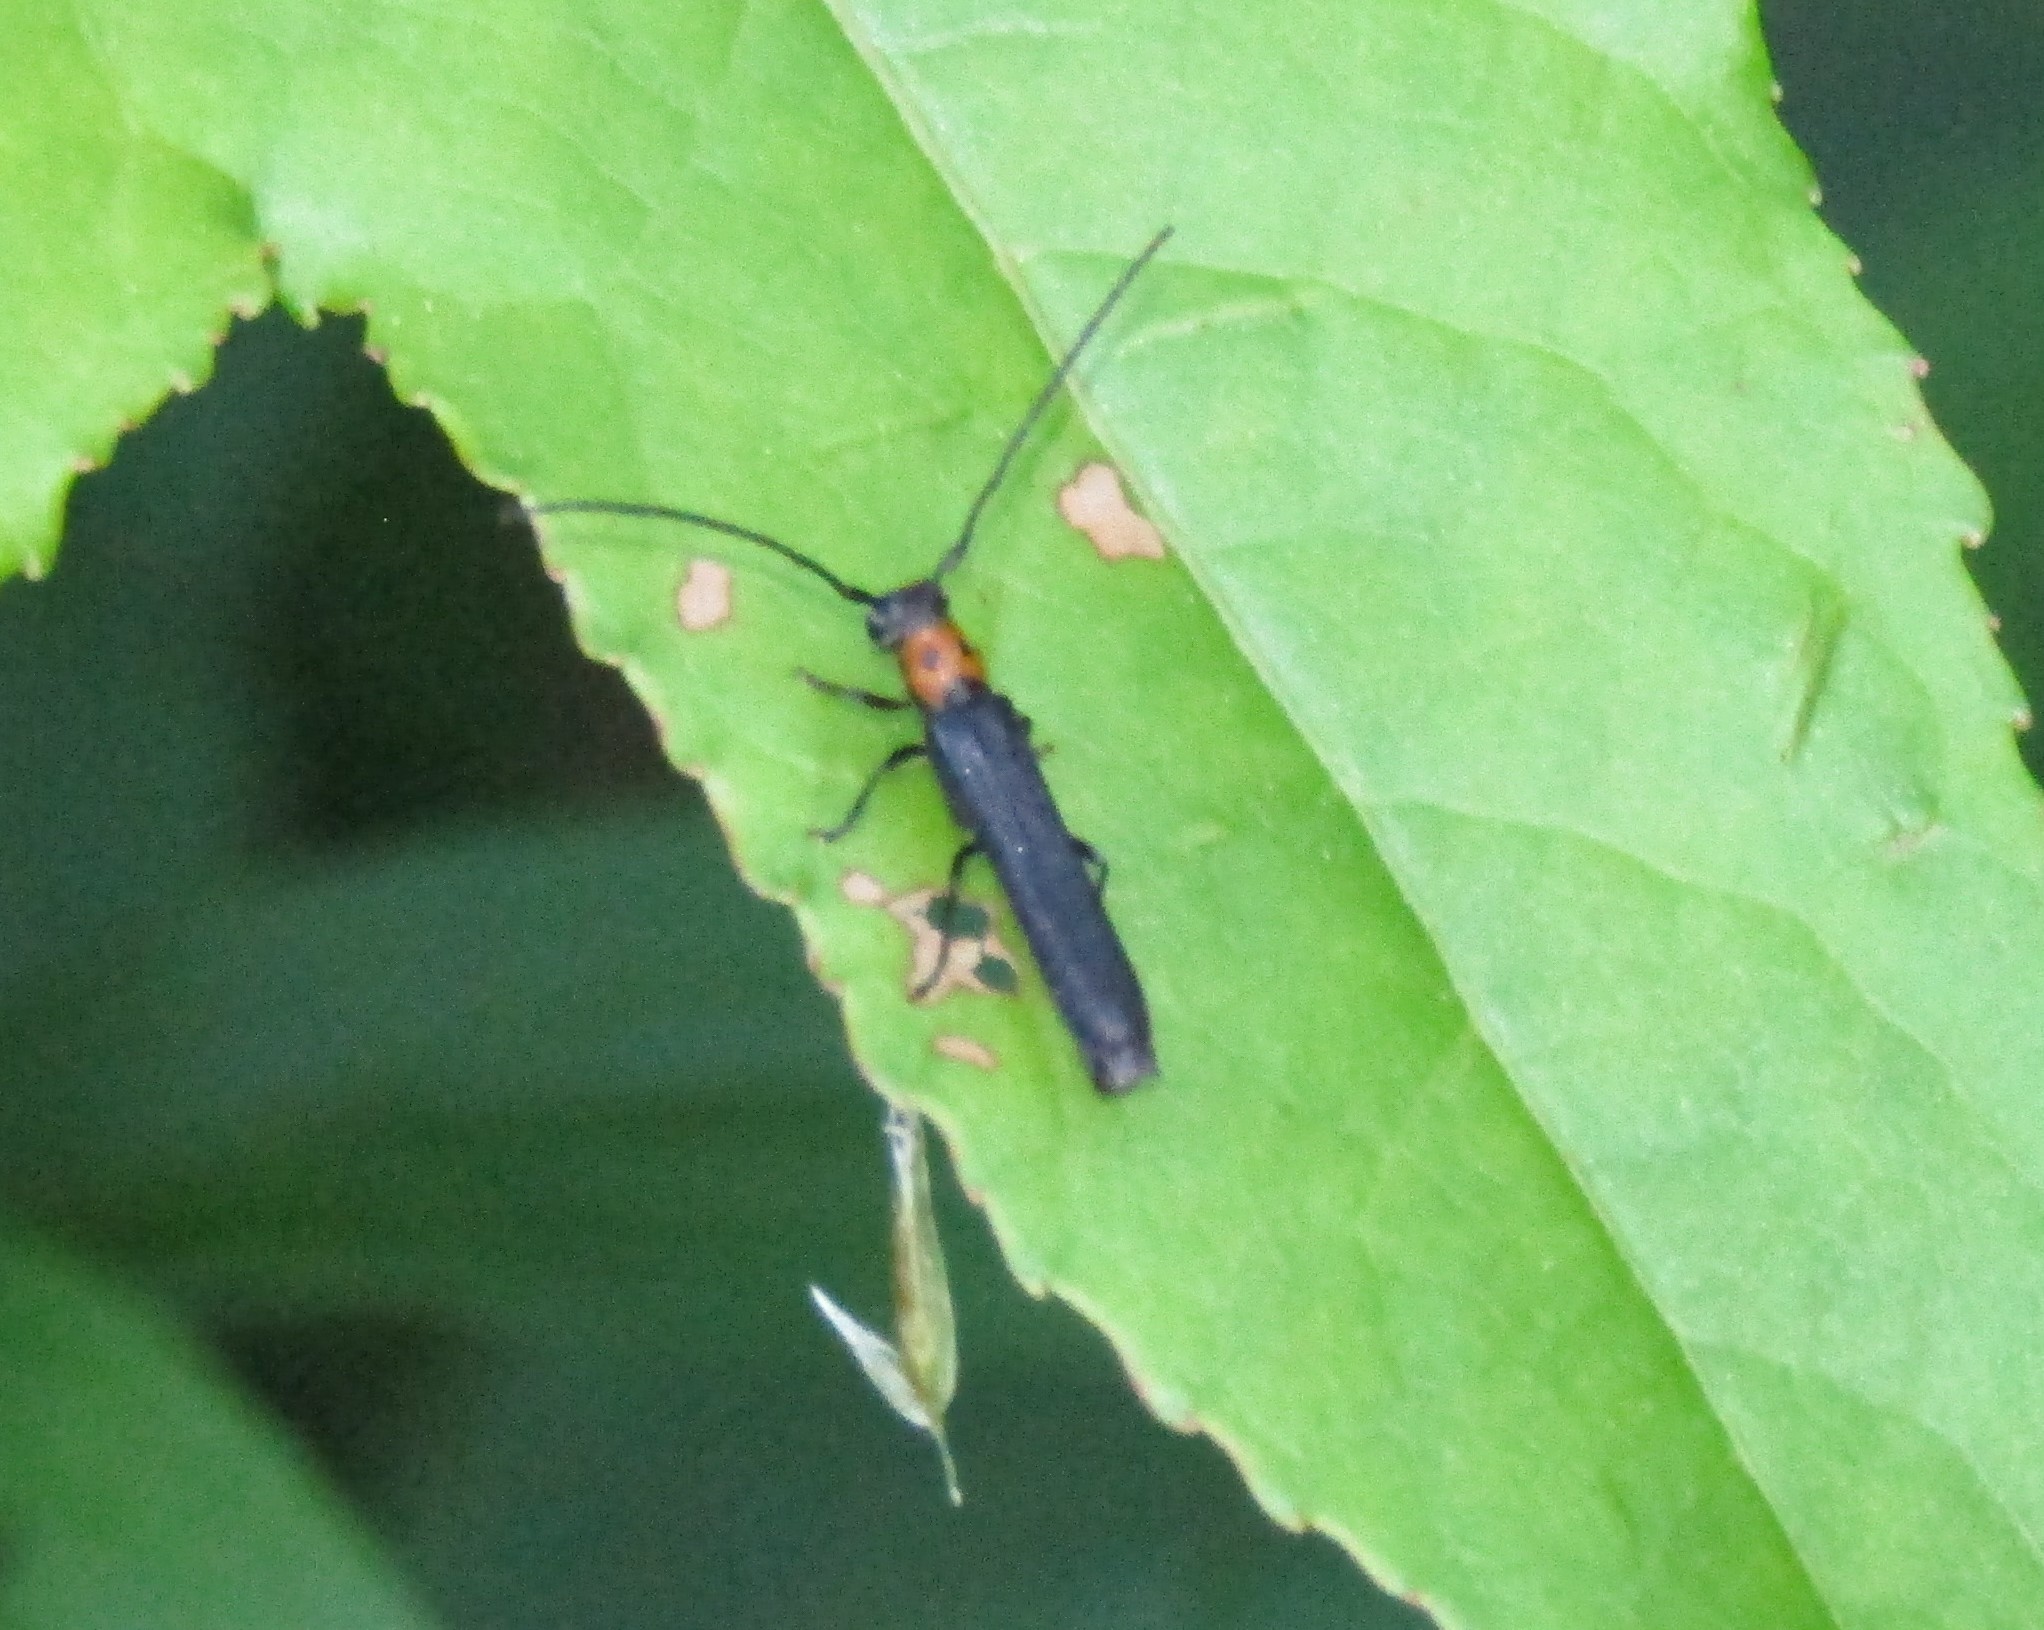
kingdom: Animalia
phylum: Arthropoda
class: Insecta
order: Coleoptera
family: Cerambycidae
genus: Oberea
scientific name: Oberea perspicillata
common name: Raspberry cane borer
